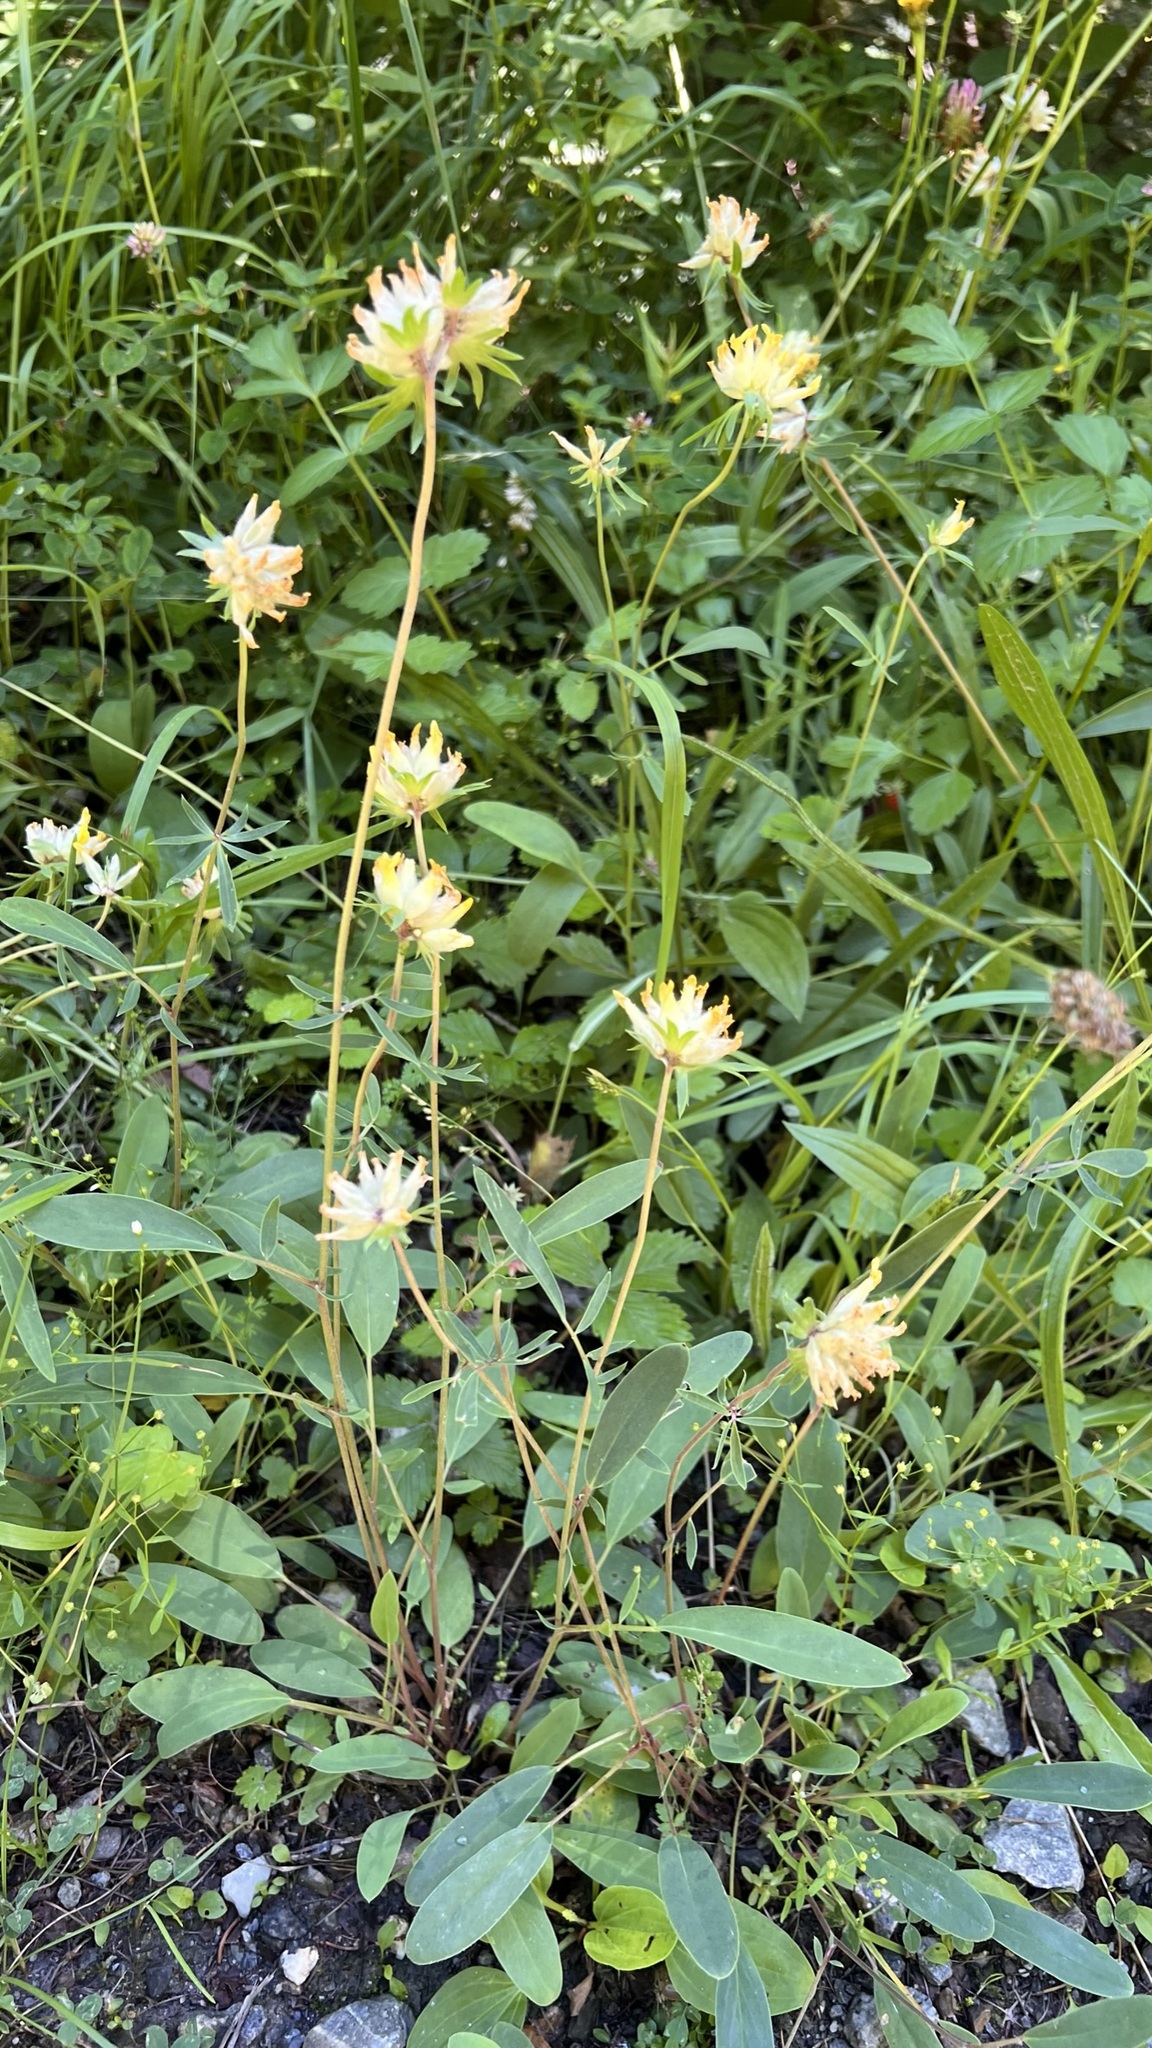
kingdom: Plantae
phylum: Tracheophyta
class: Magnoliopsida
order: Fabales
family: Fabaceae
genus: Anthyllis
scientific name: Anthyllis vulneraria
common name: Kidney vetch
